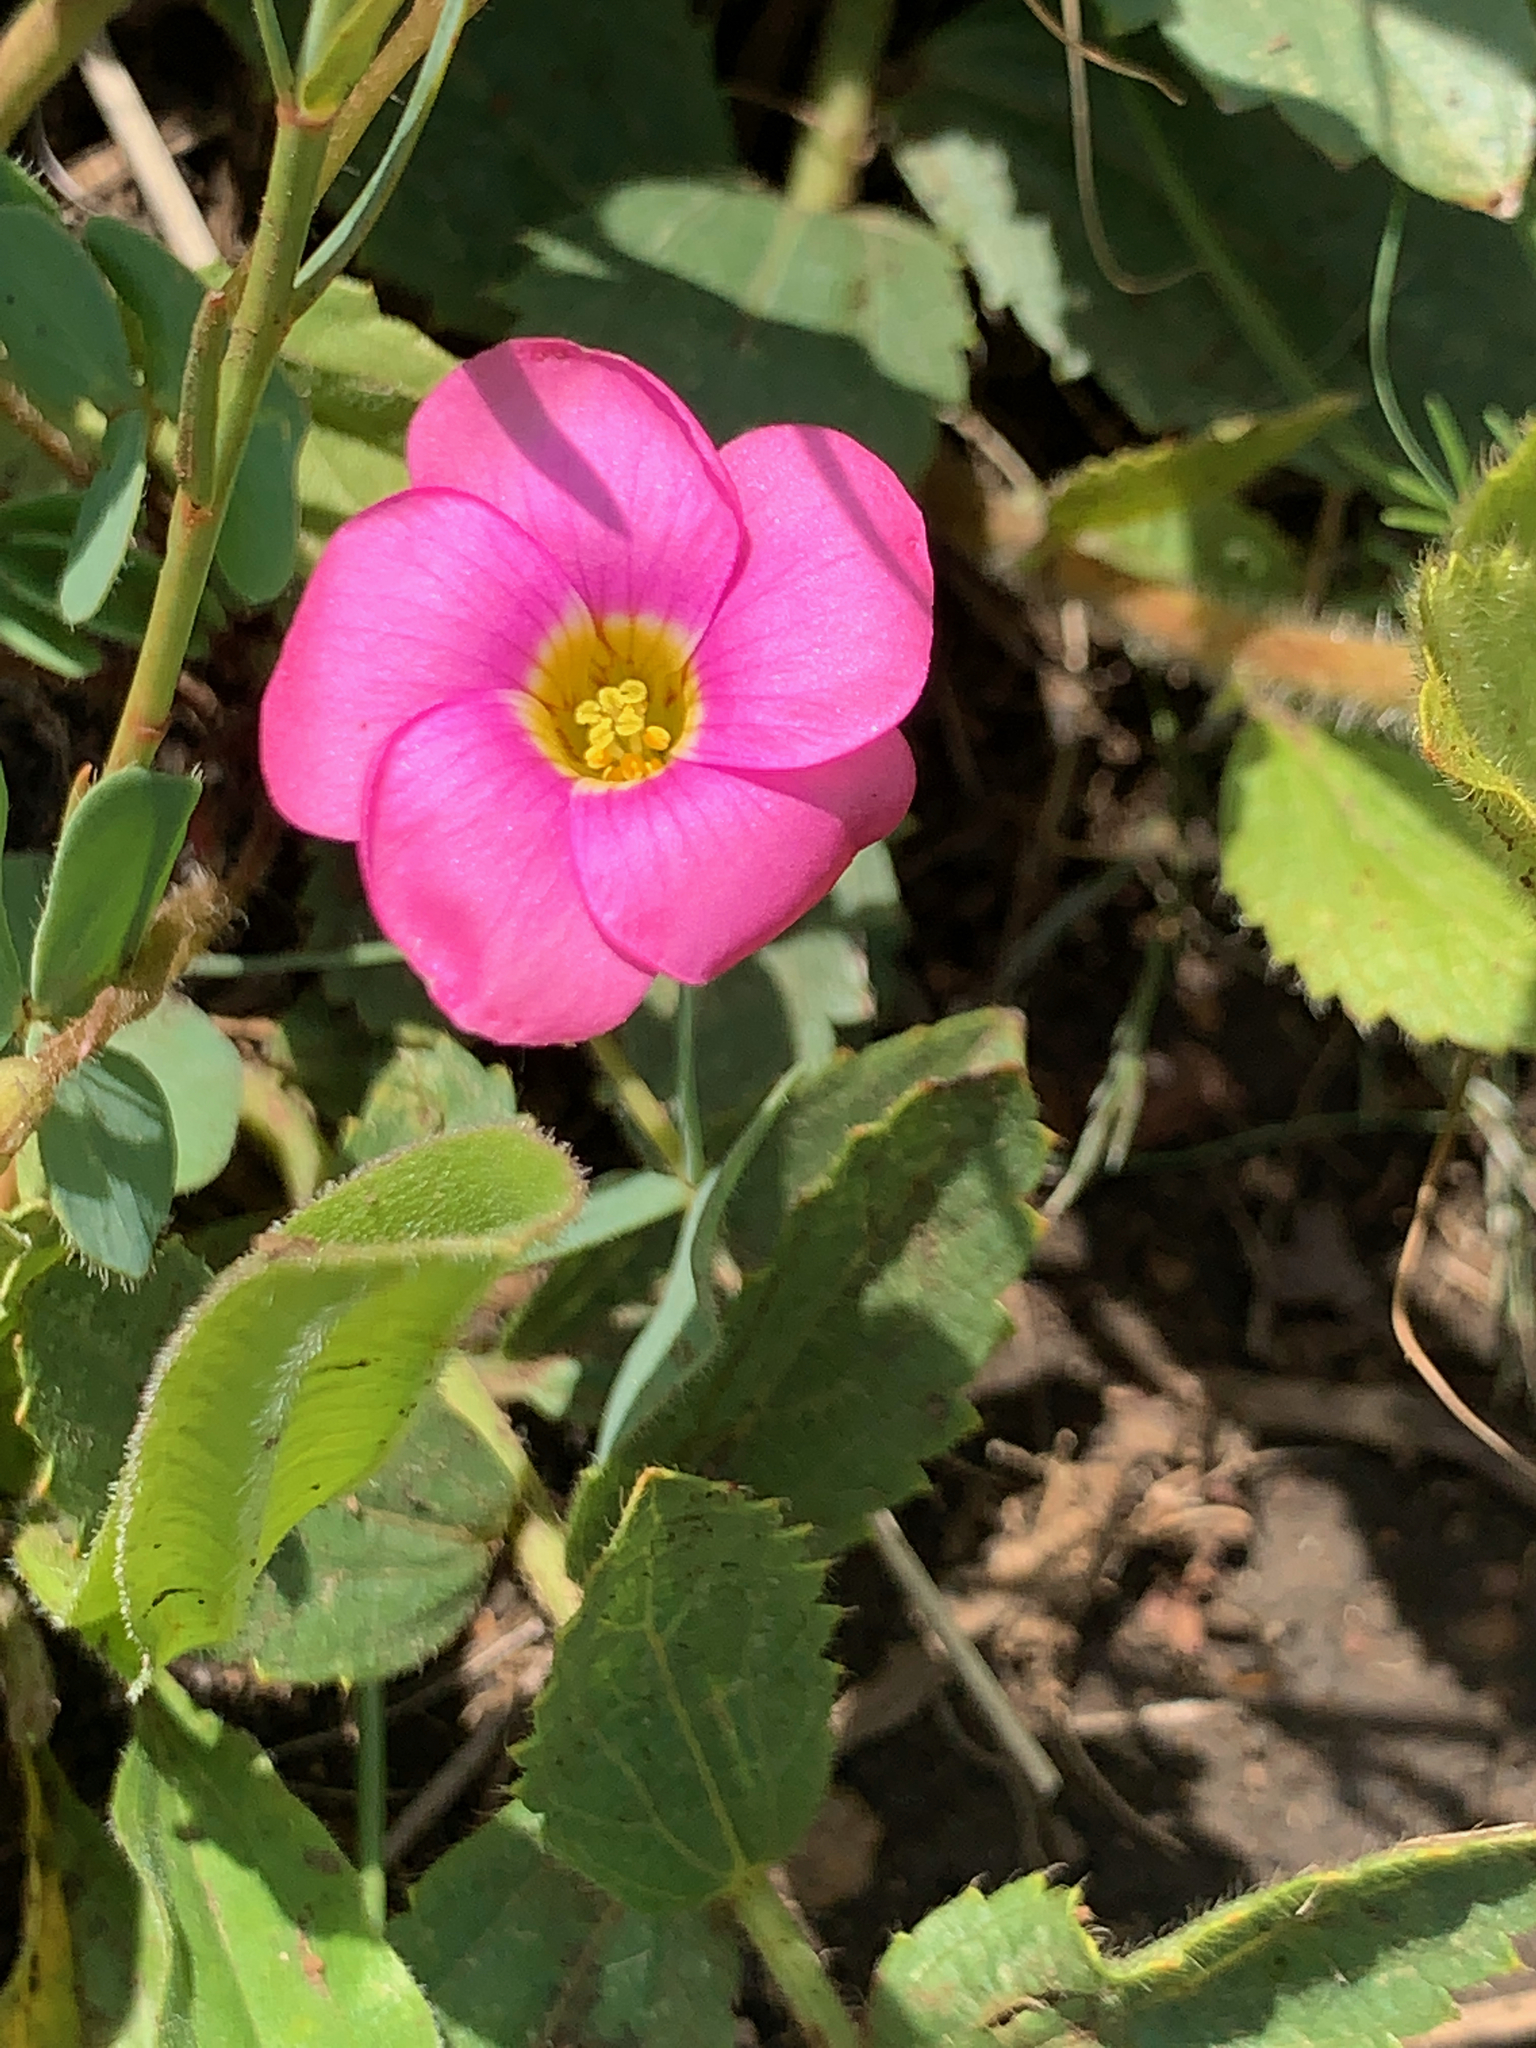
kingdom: Plantae
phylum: Tracheophyta
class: Magnoliopsida
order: Oxalidales
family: Oxalidaceae
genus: Oxalis
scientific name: Oxalis obliquifolia
